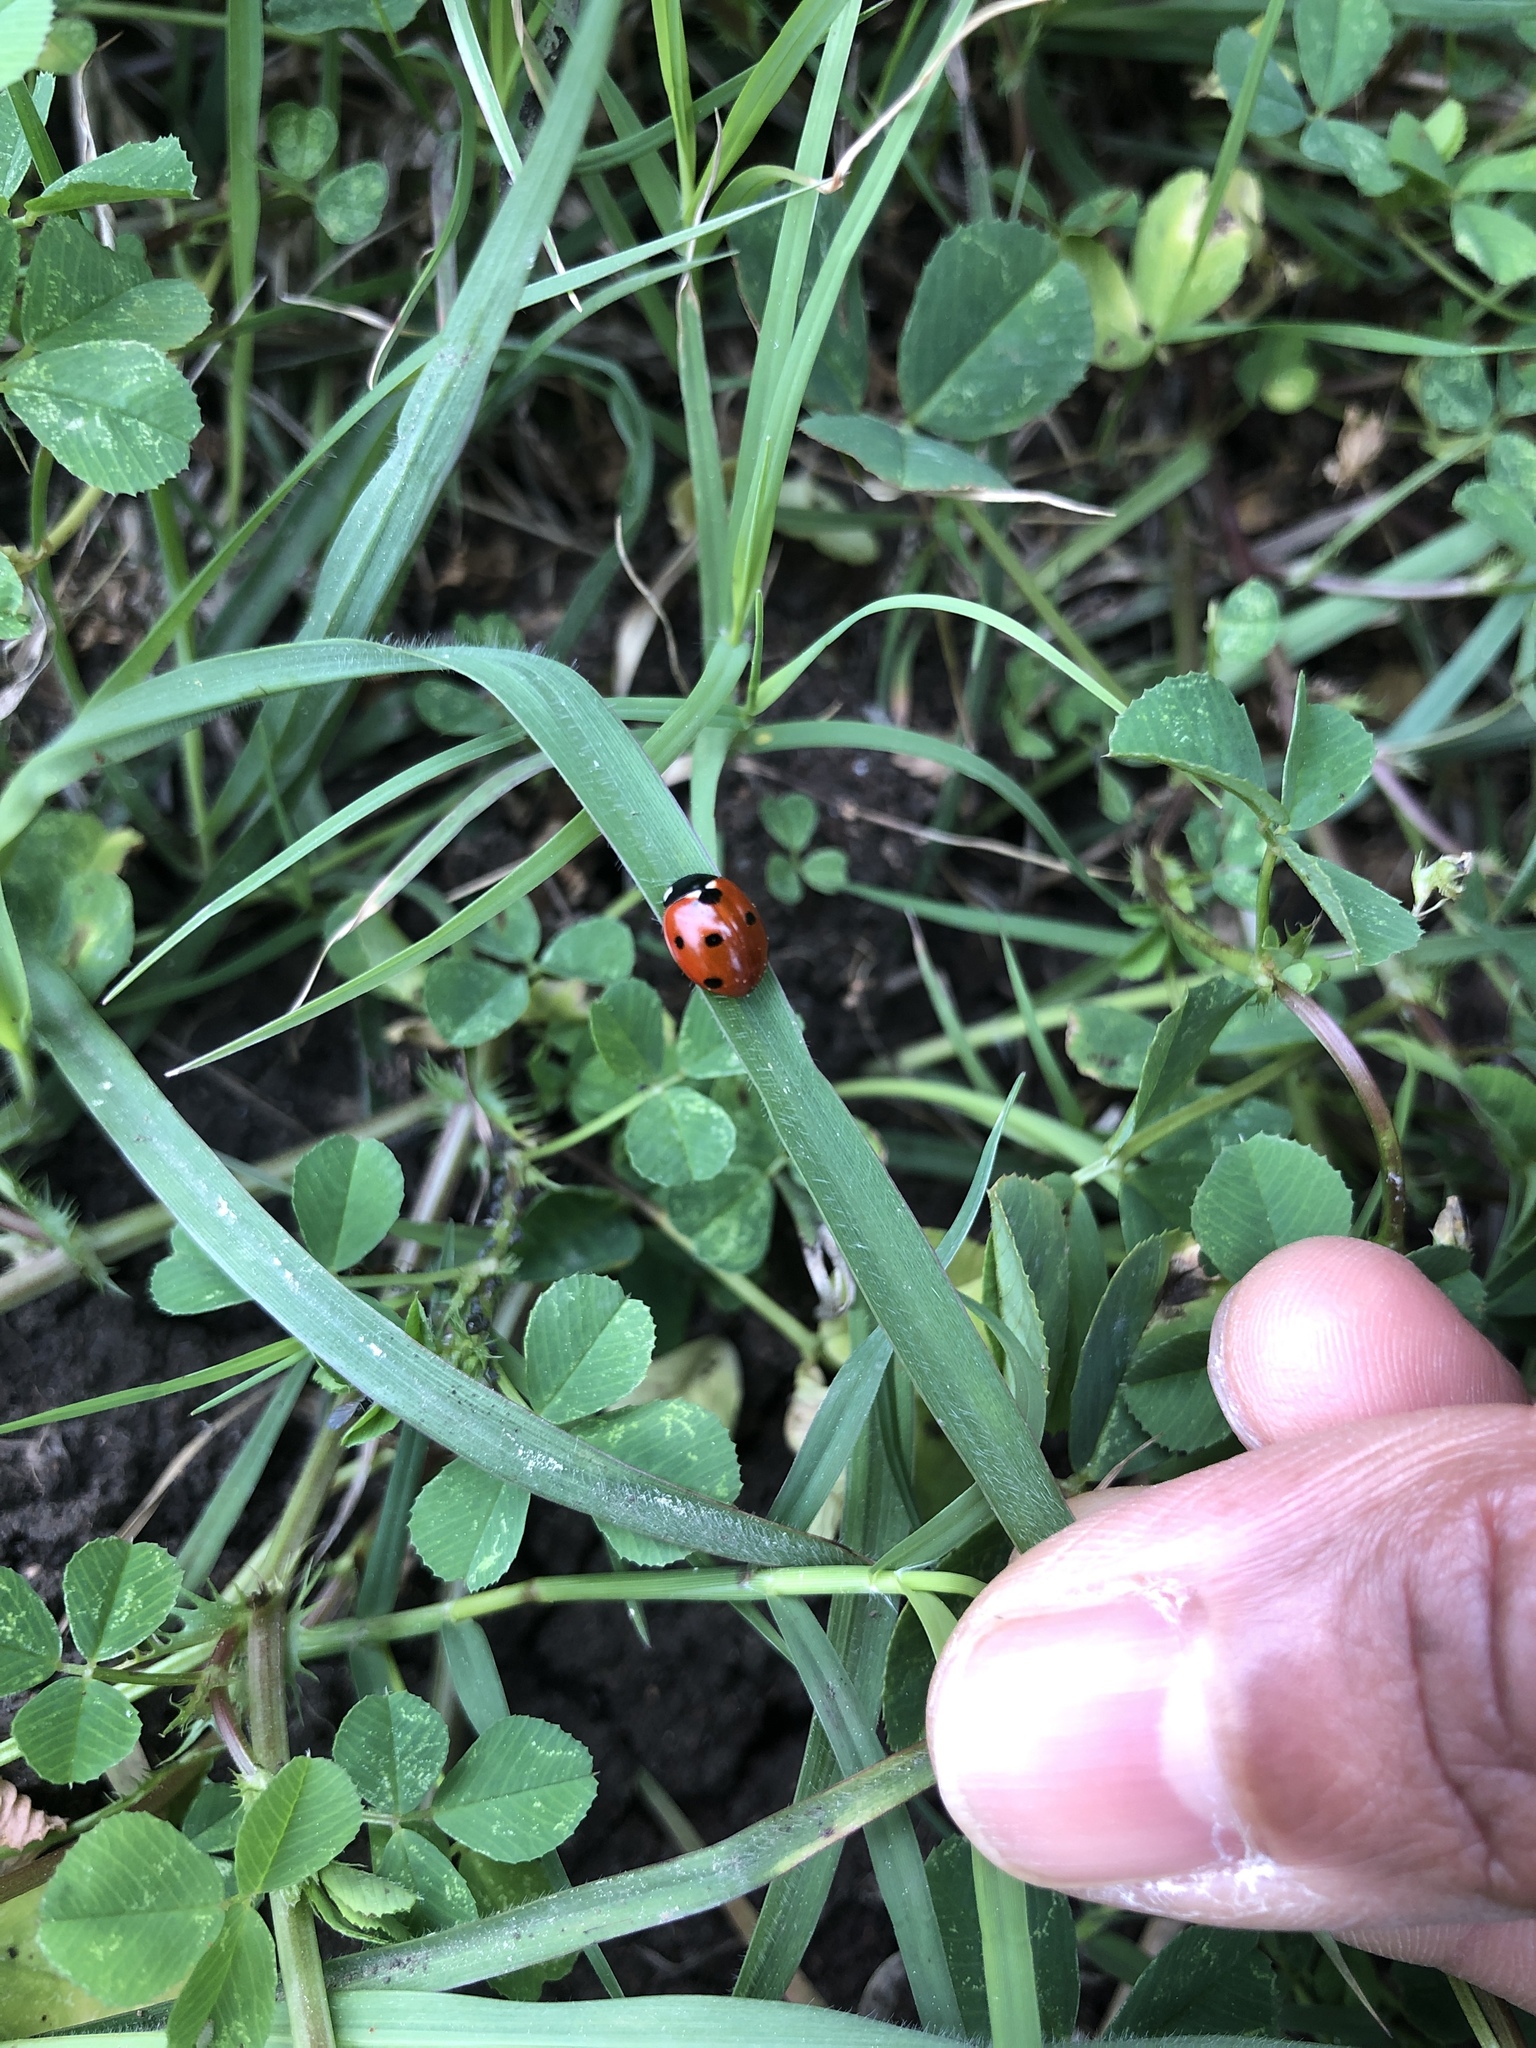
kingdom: Animalia
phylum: Arthropoda
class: Insecta
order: Coleoptera
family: Coccinellidae
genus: Coccinella
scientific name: Coccinella septempunctata
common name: Sevenspotted lady beetle
